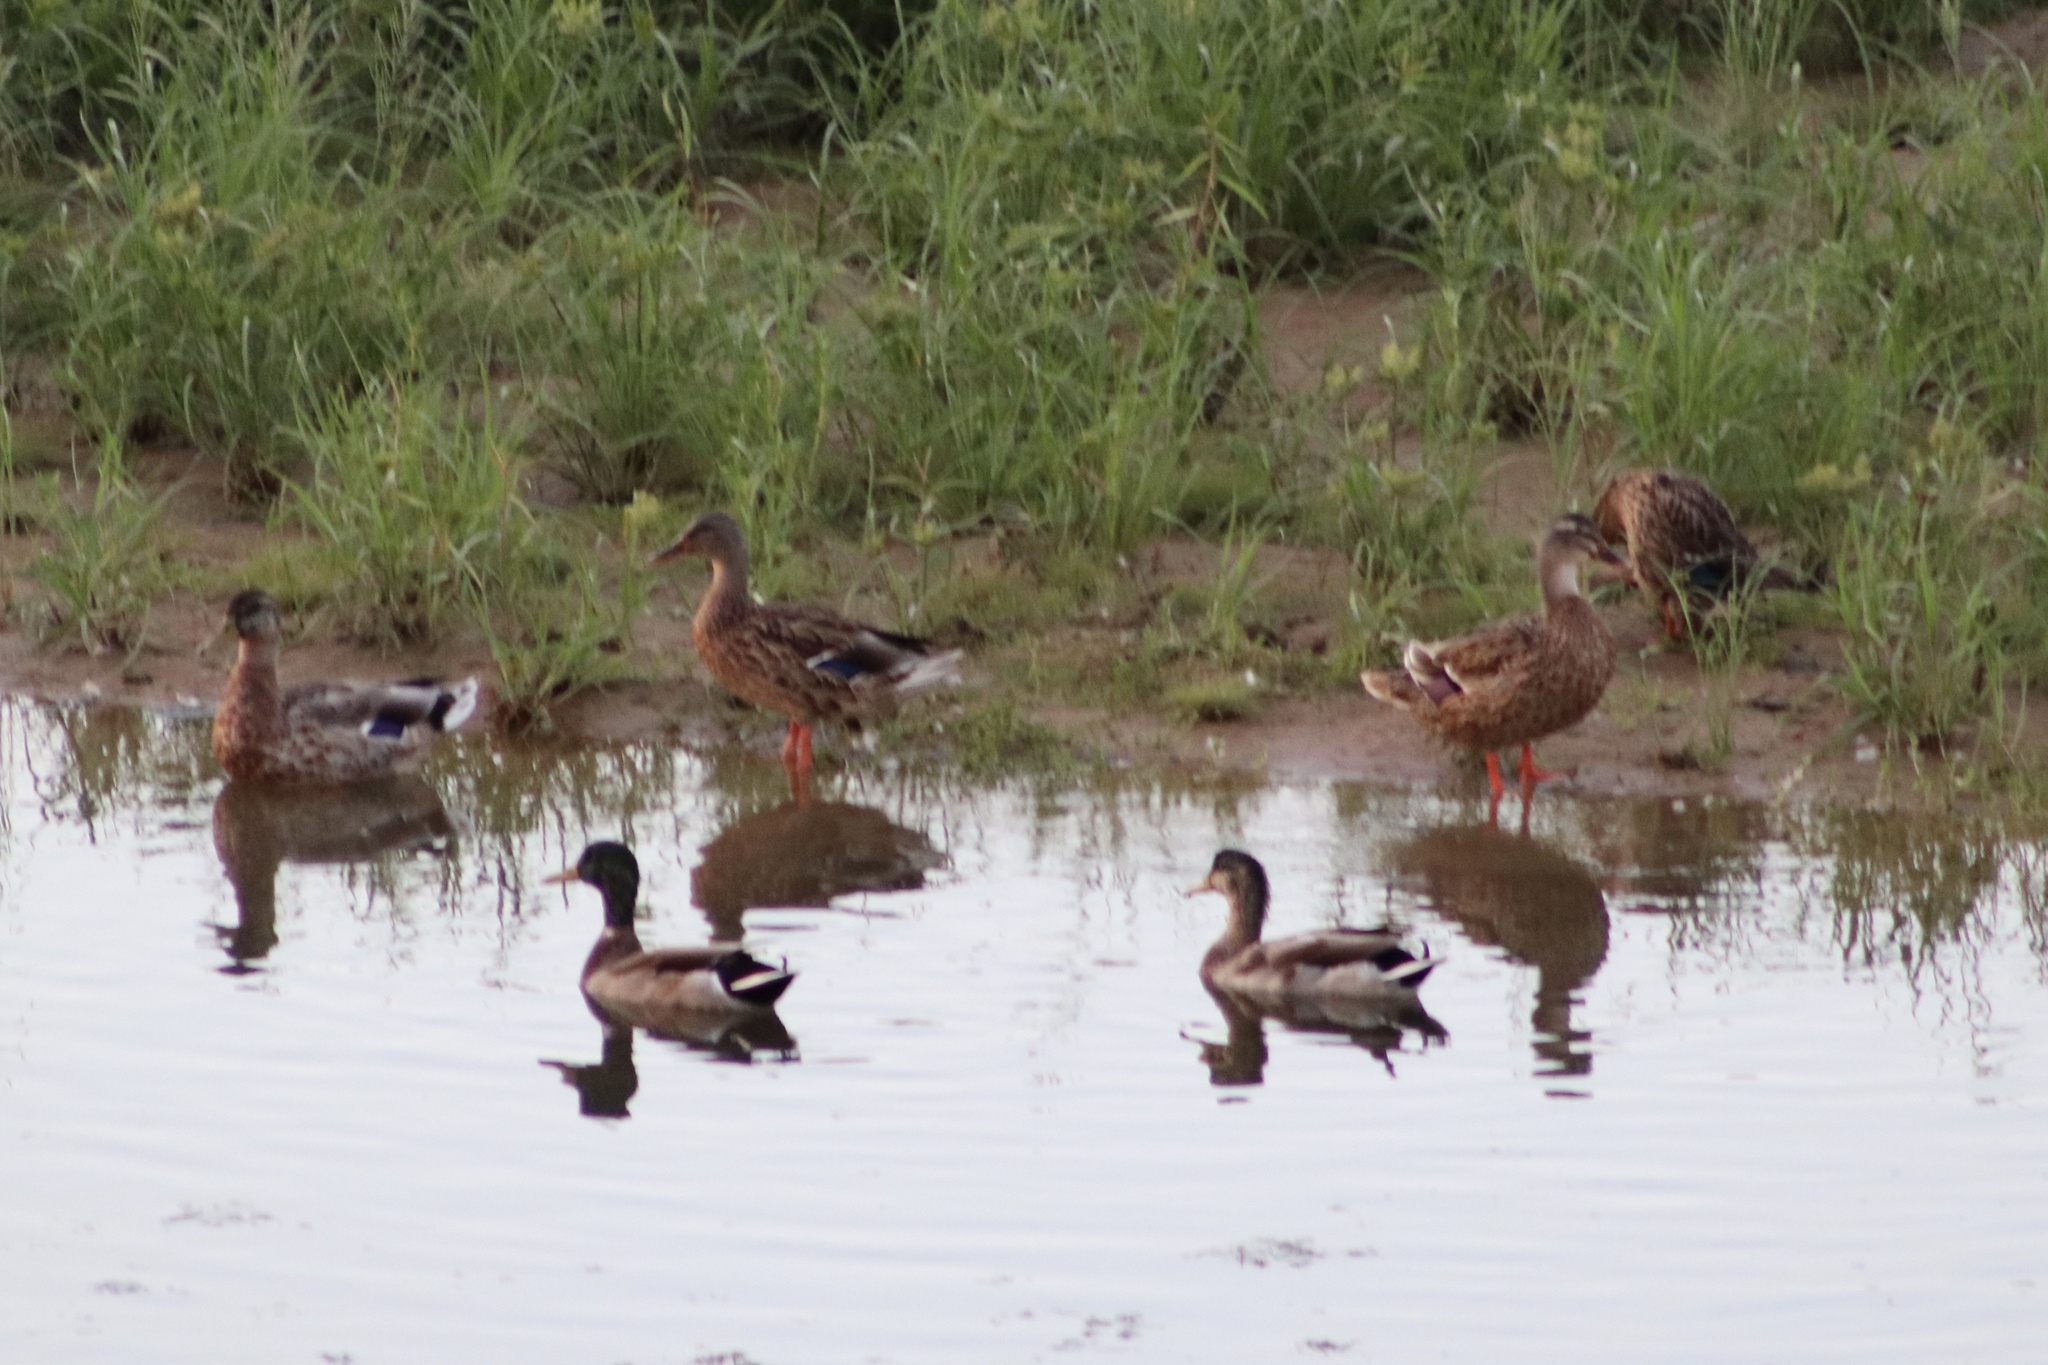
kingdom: Animalia
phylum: Chordata
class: Aves
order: Anseriformes
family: Anatidae
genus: Anas
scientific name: Anas platyrhynchos
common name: Mallard
